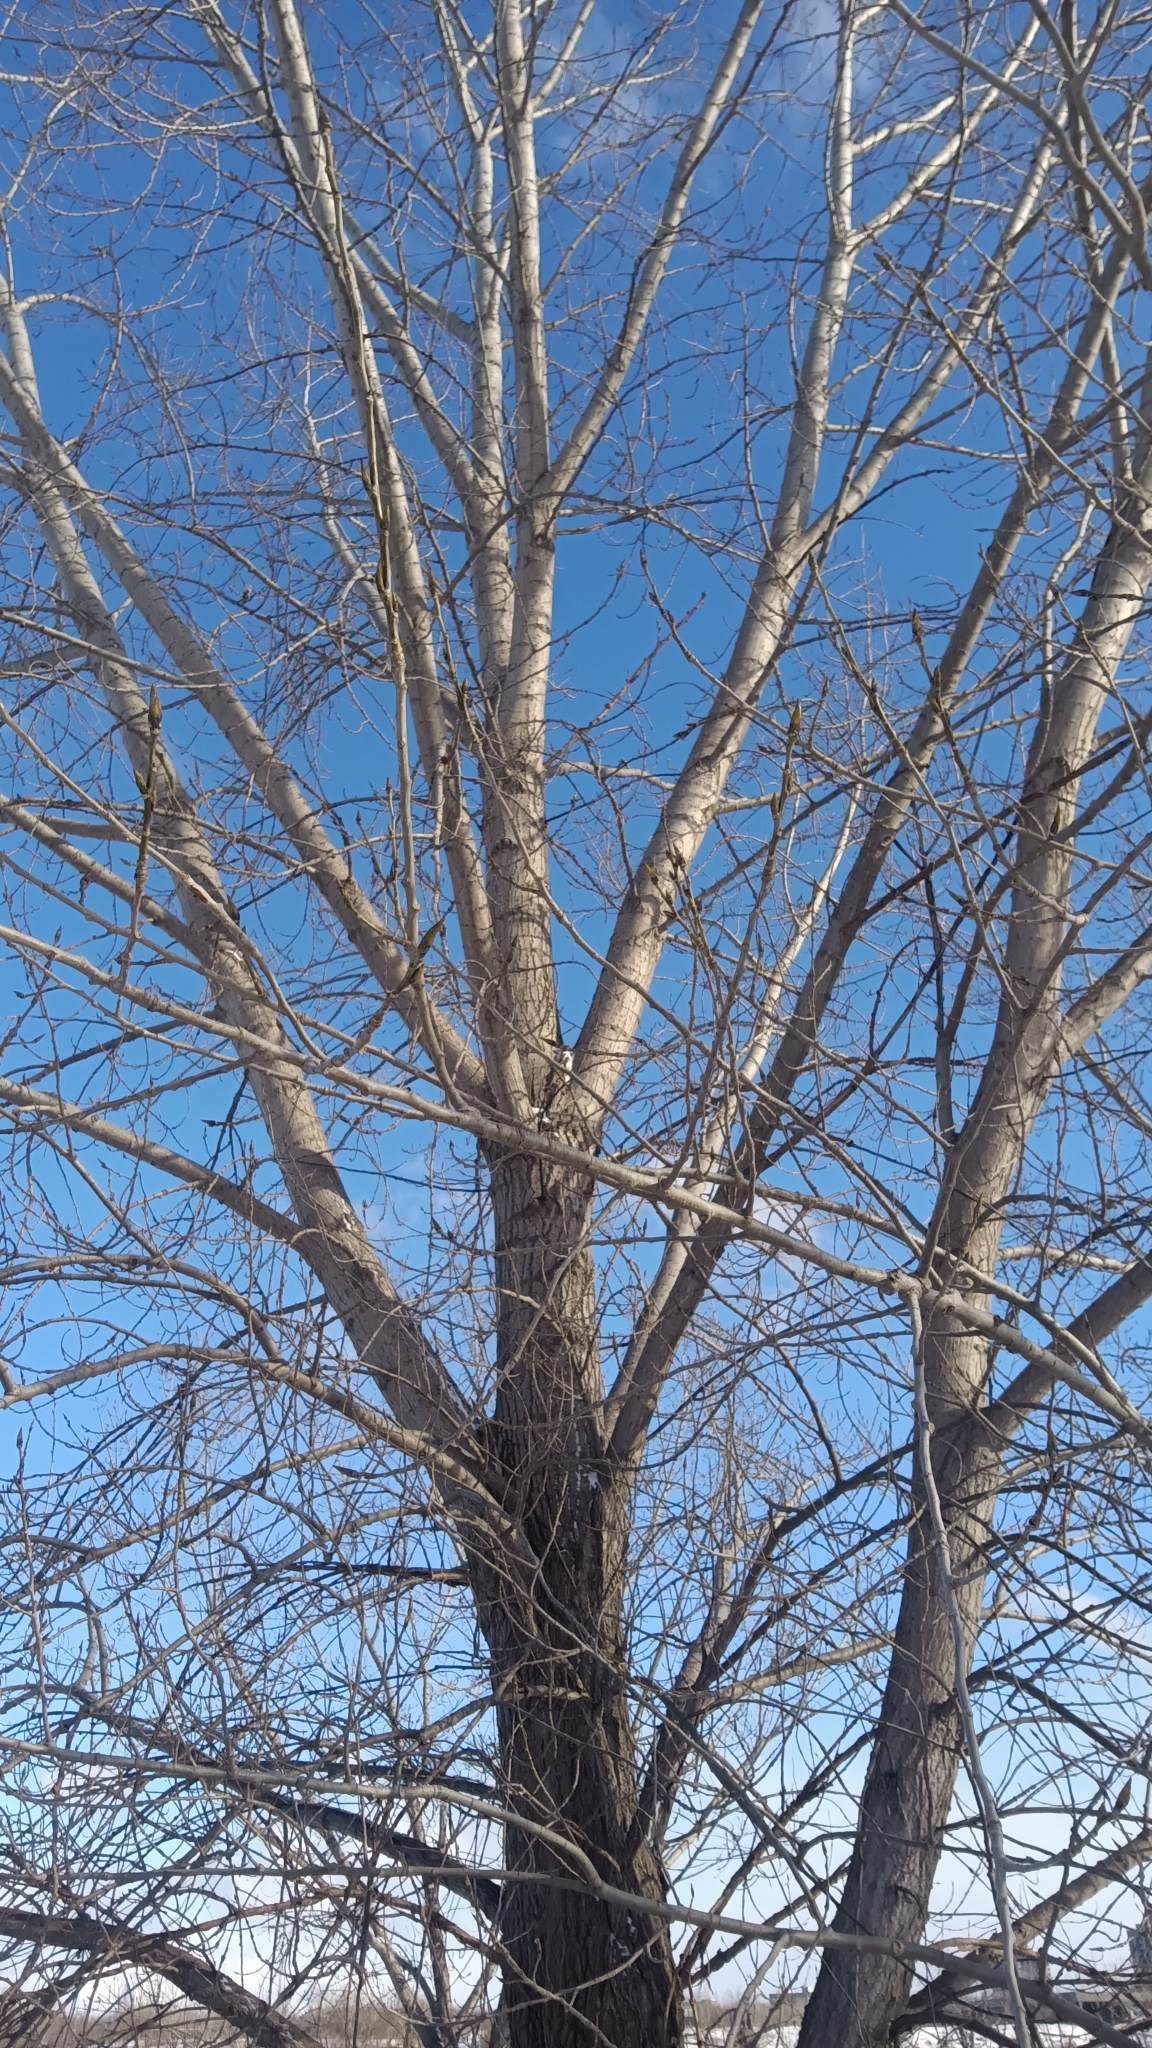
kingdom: Plantae
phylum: Tracheophyta
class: Magnoliopsida
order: Malpighiales
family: Salicaceae
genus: Populus
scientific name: Populus deltoides
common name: Eastern cottonwood
